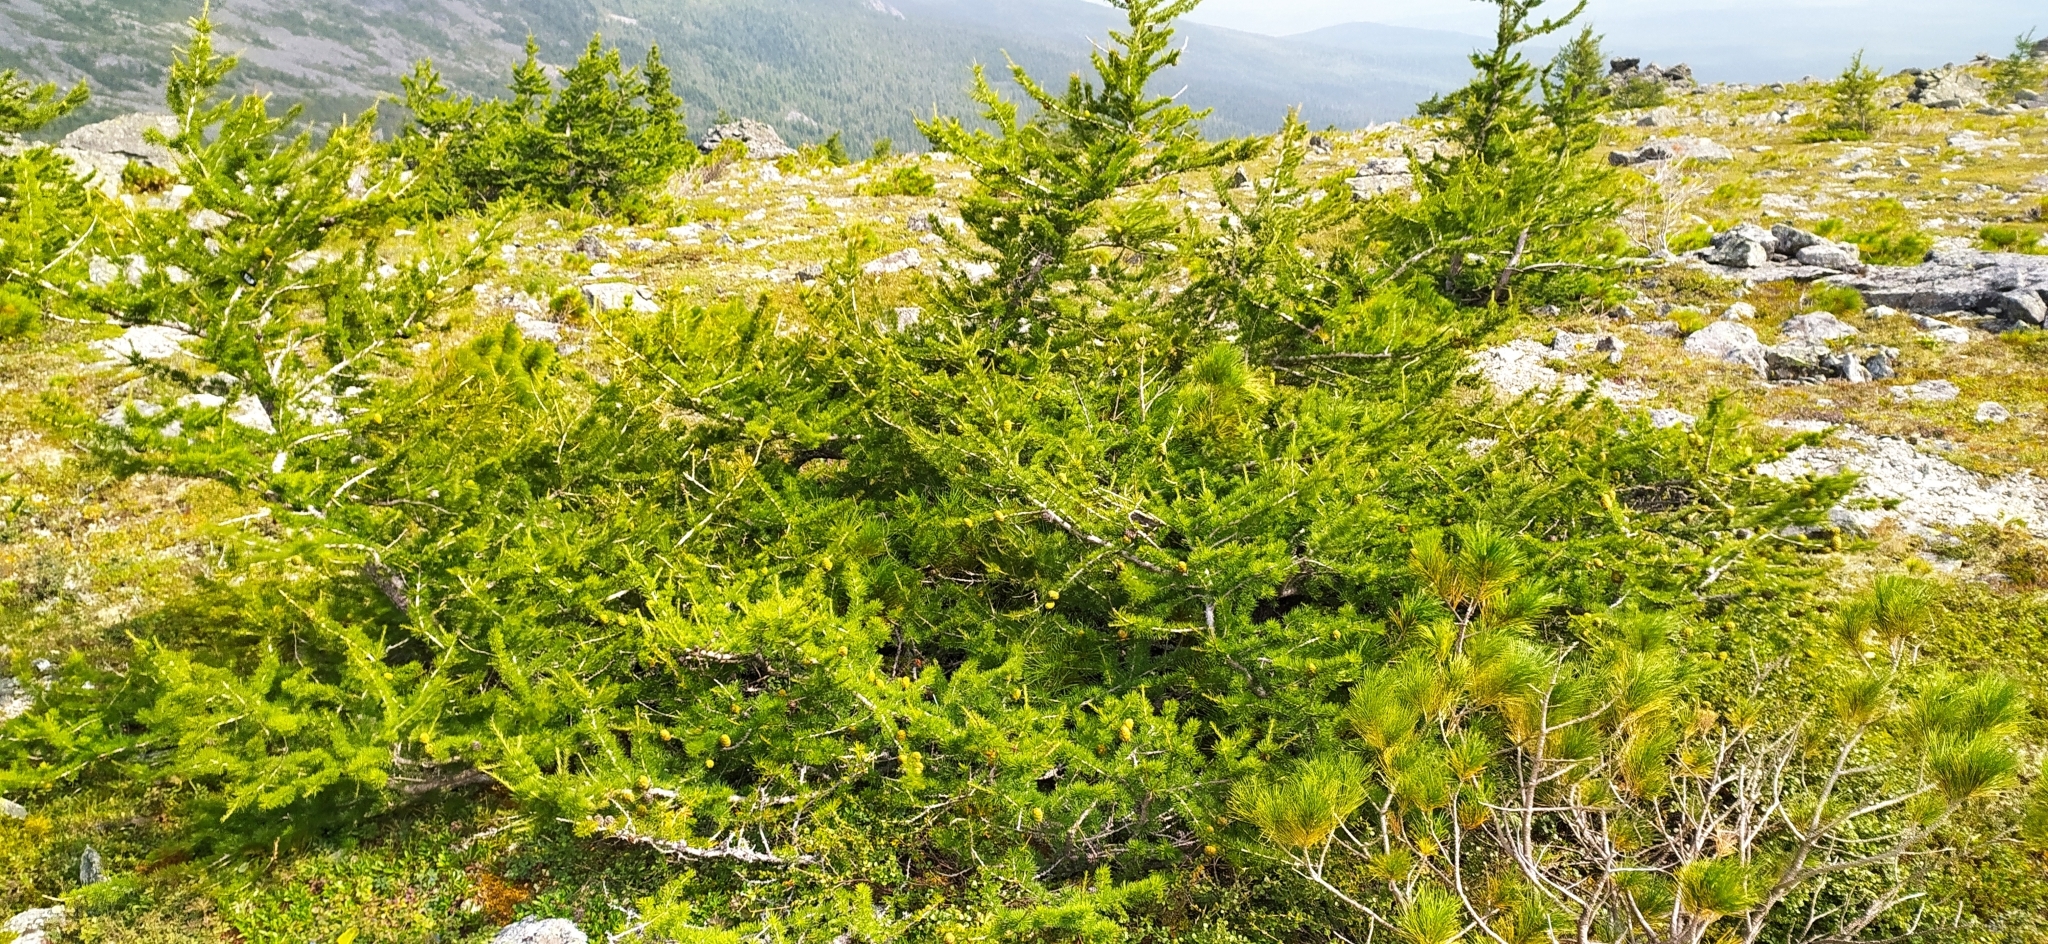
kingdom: Plantae
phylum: Tracheophyta
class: Pinopsida
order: Pinales
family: Pinaceae
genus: Larix
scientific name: Larix sibirica
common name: Siberian larch
